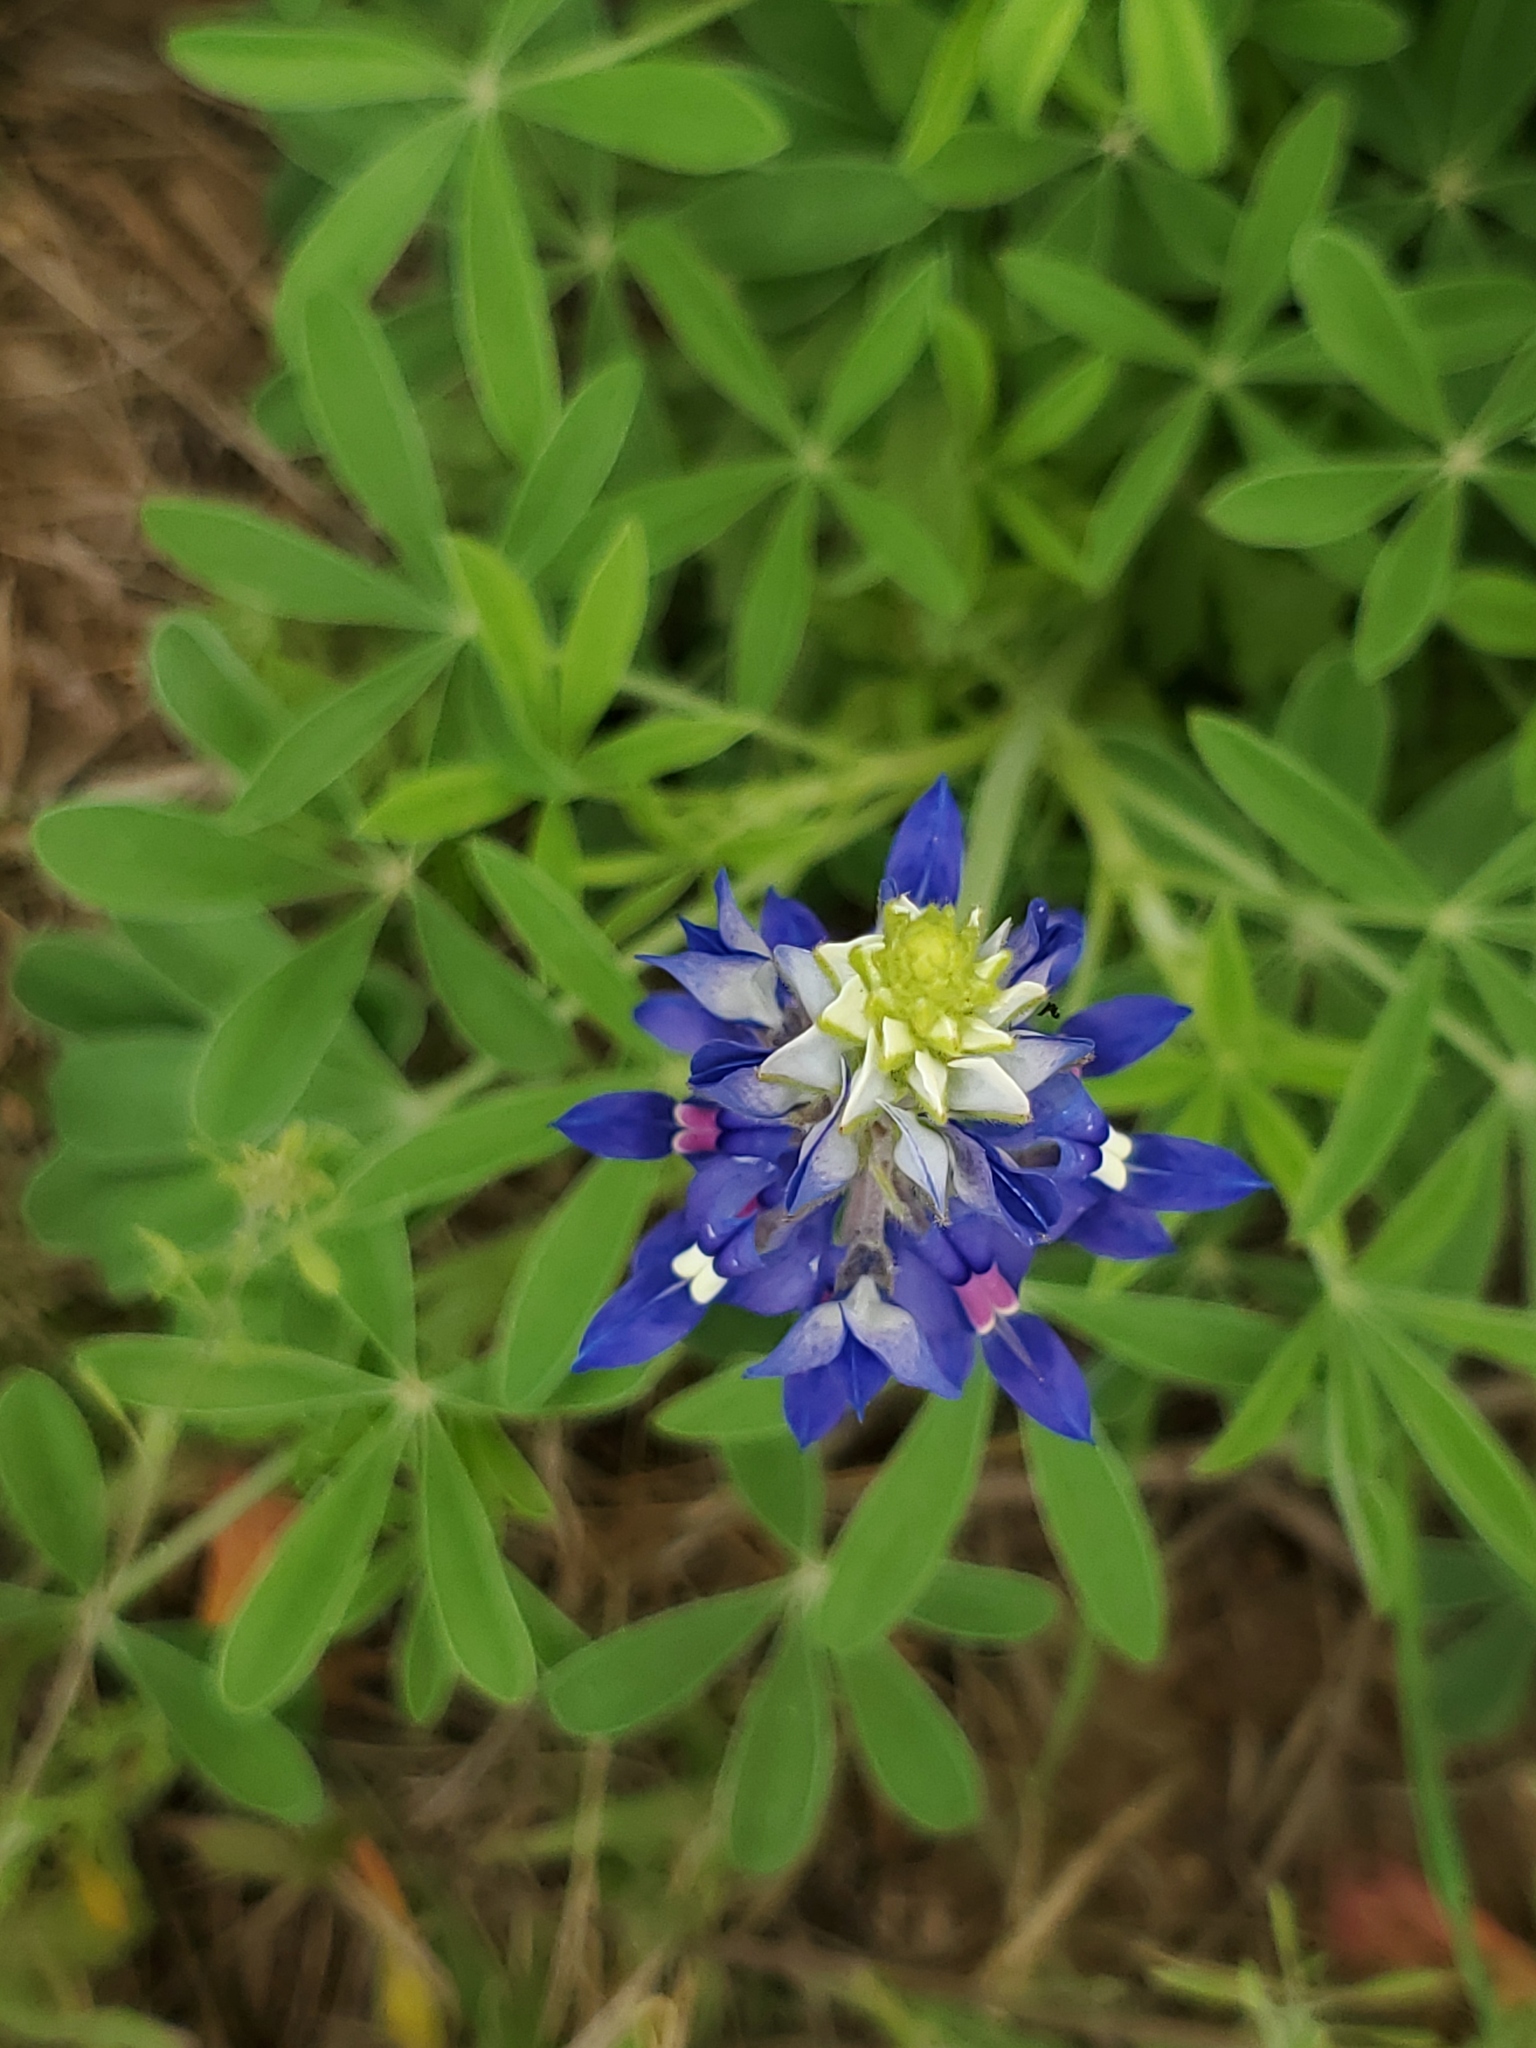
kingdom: Plantae
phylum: Tracheophyta
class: Magnoliopsida
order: Fabales
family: Fabaceae
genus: Lupinus
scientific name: Lupinus texensis
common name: Texas bluebonnet
